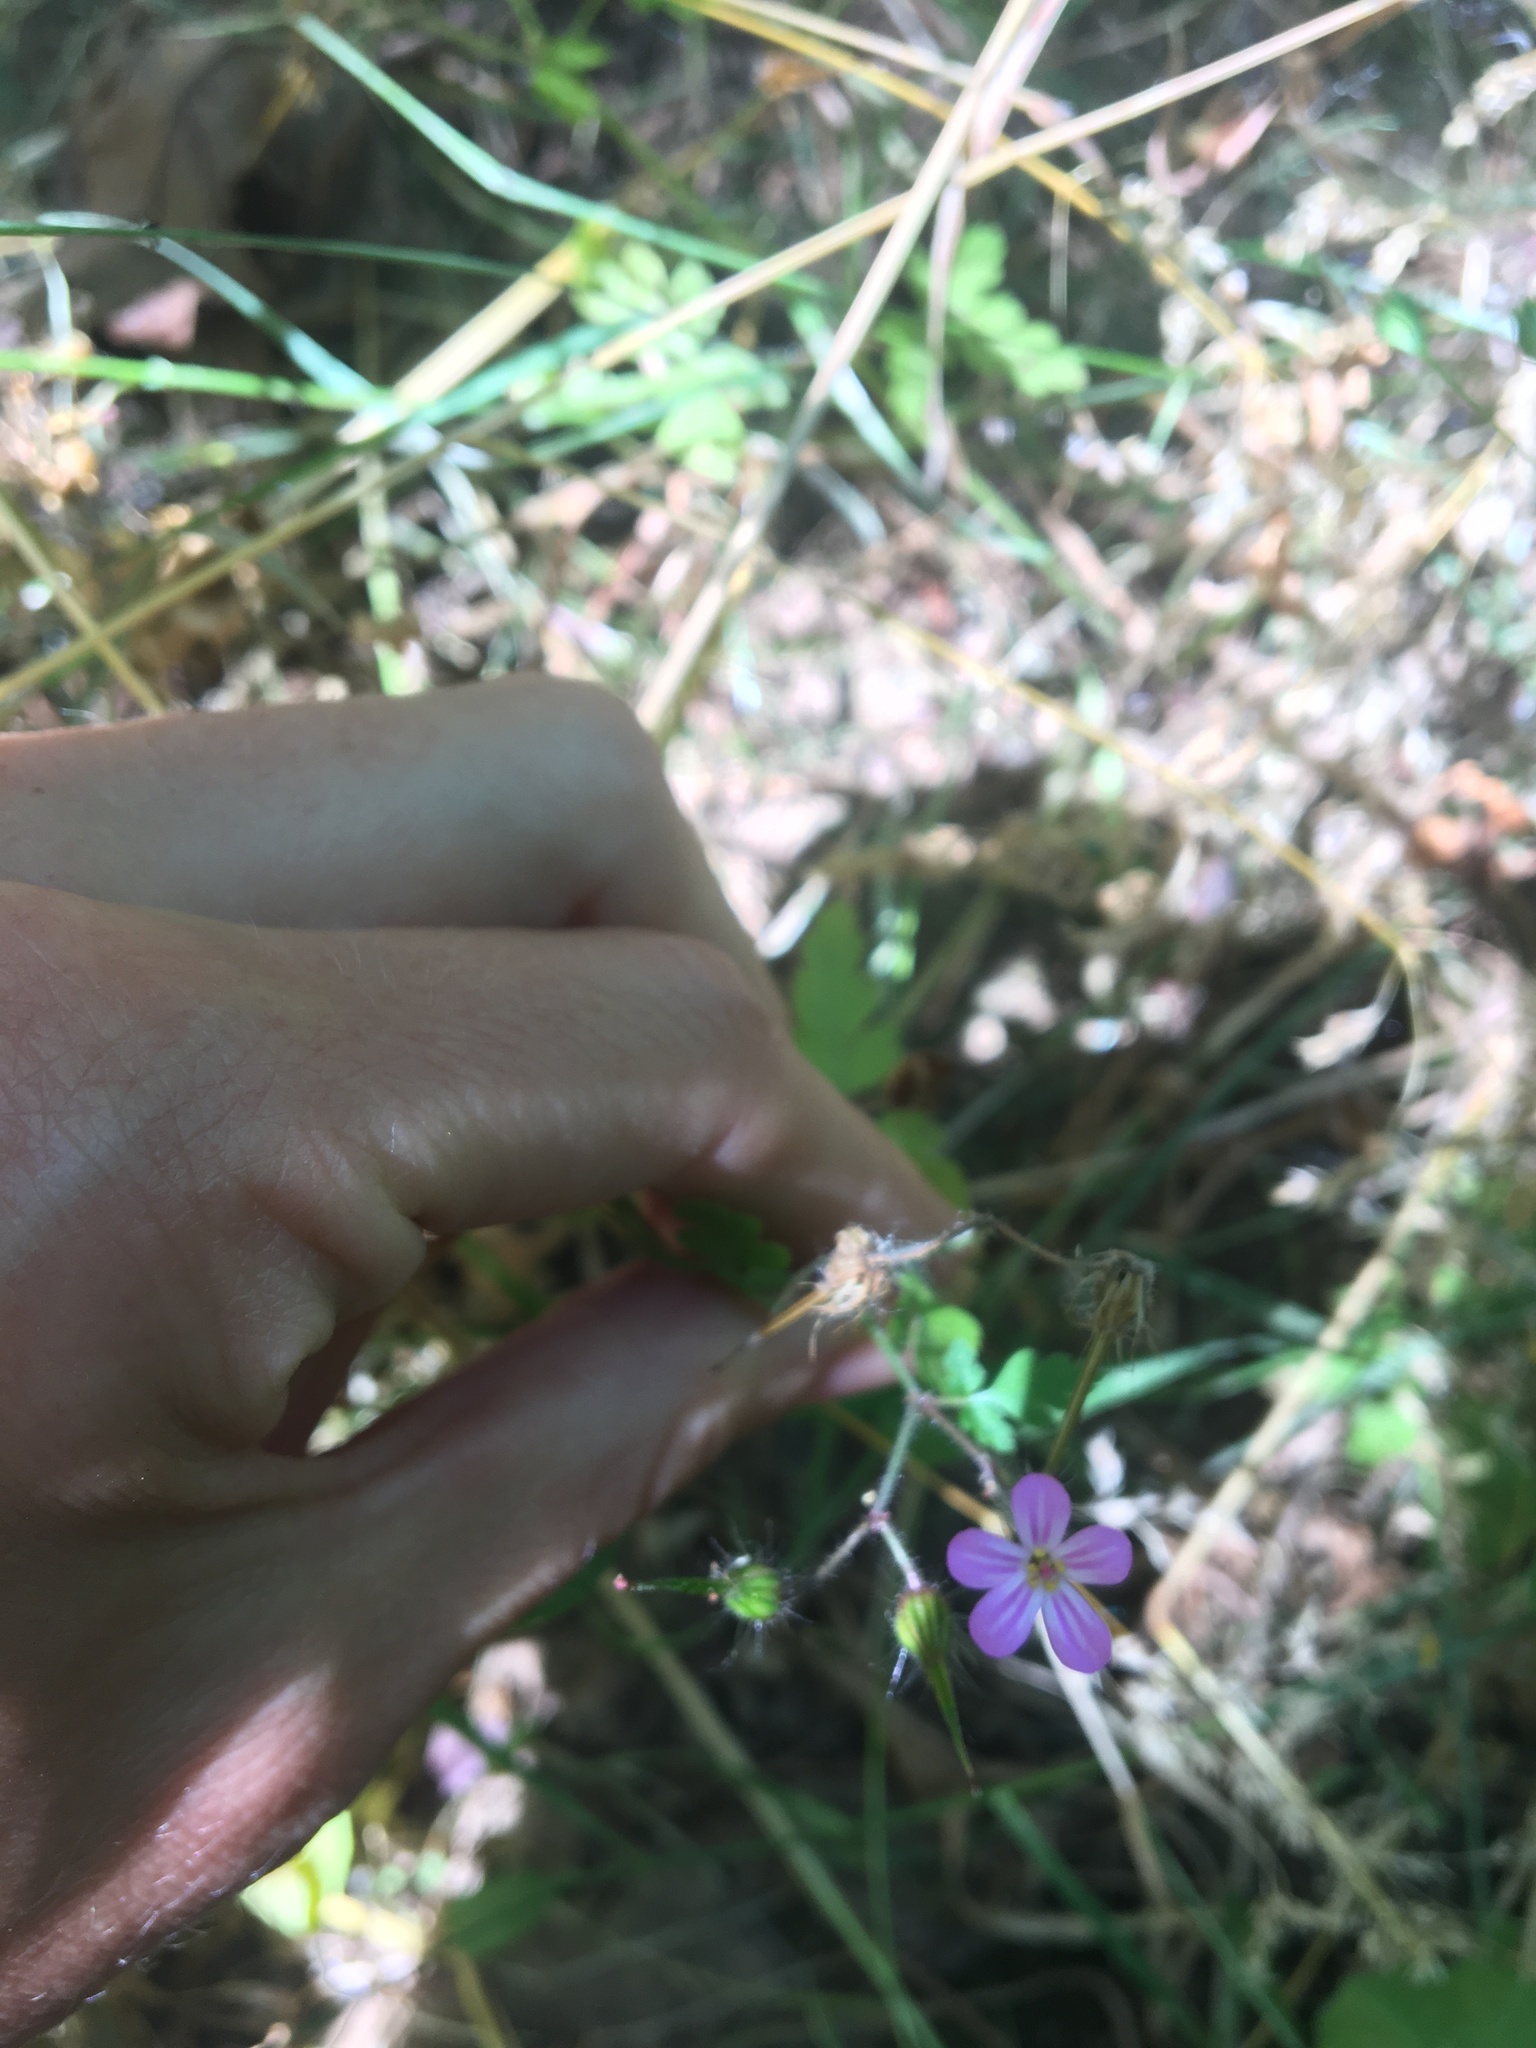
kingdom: Plantae
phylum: Tracheophyta
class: Magnoliopsida
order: Geraniales
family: Geraniaceae
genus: Geranium
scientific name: Geranium robertianum
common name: Herb-robert
